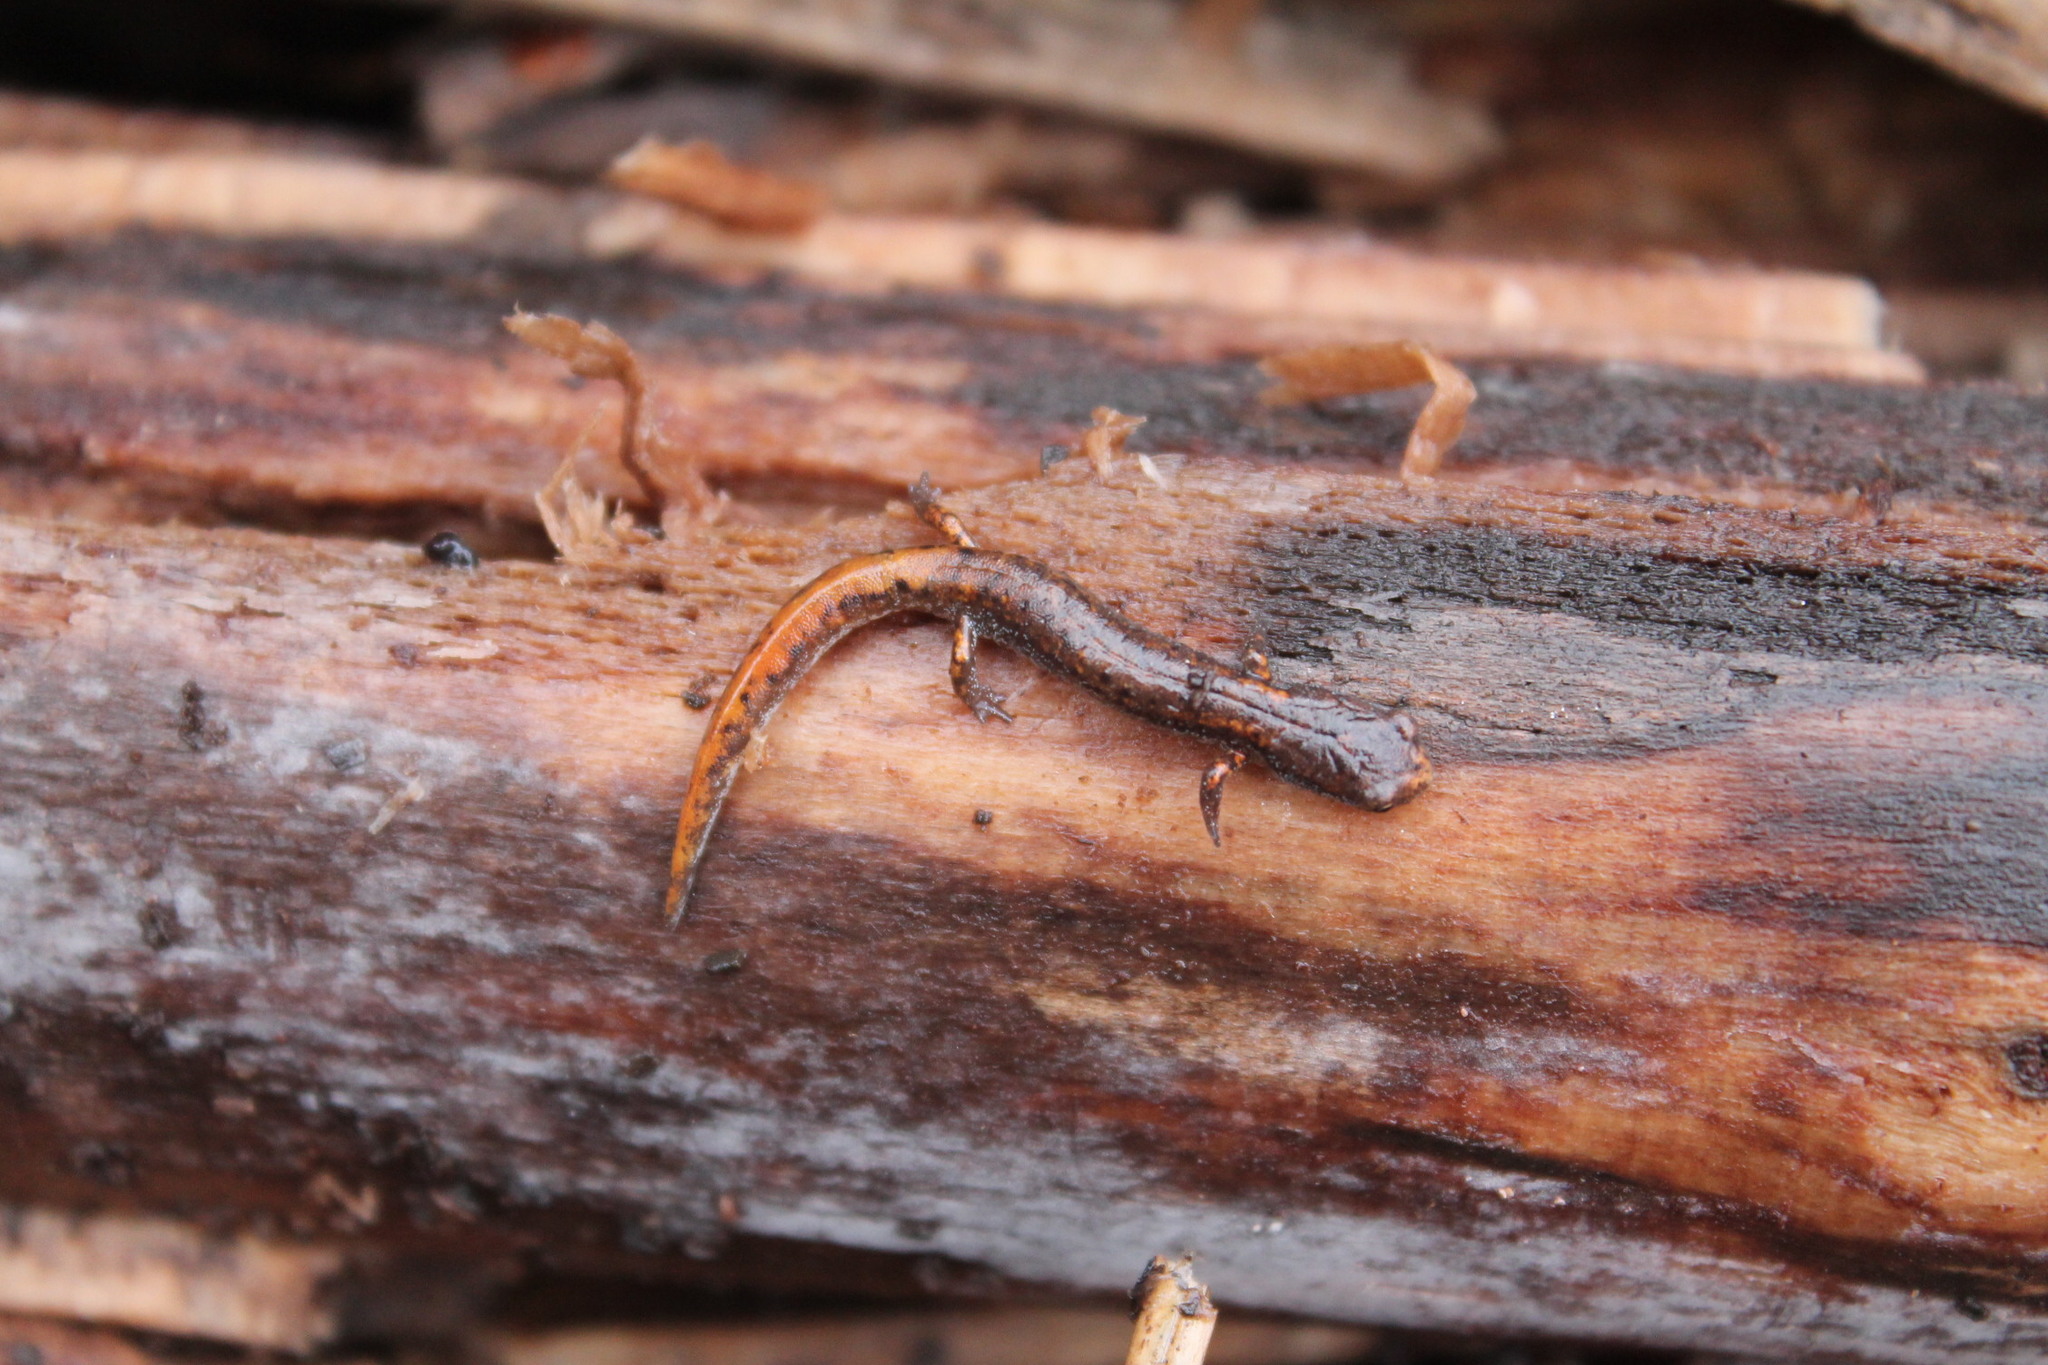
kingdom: Animalia
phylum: Chordata
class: Amphibia
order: Caudata
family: Plethodontidae
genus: Hemidactylium
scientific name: Hemidactylium scutatum
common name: Four-toed salamander
